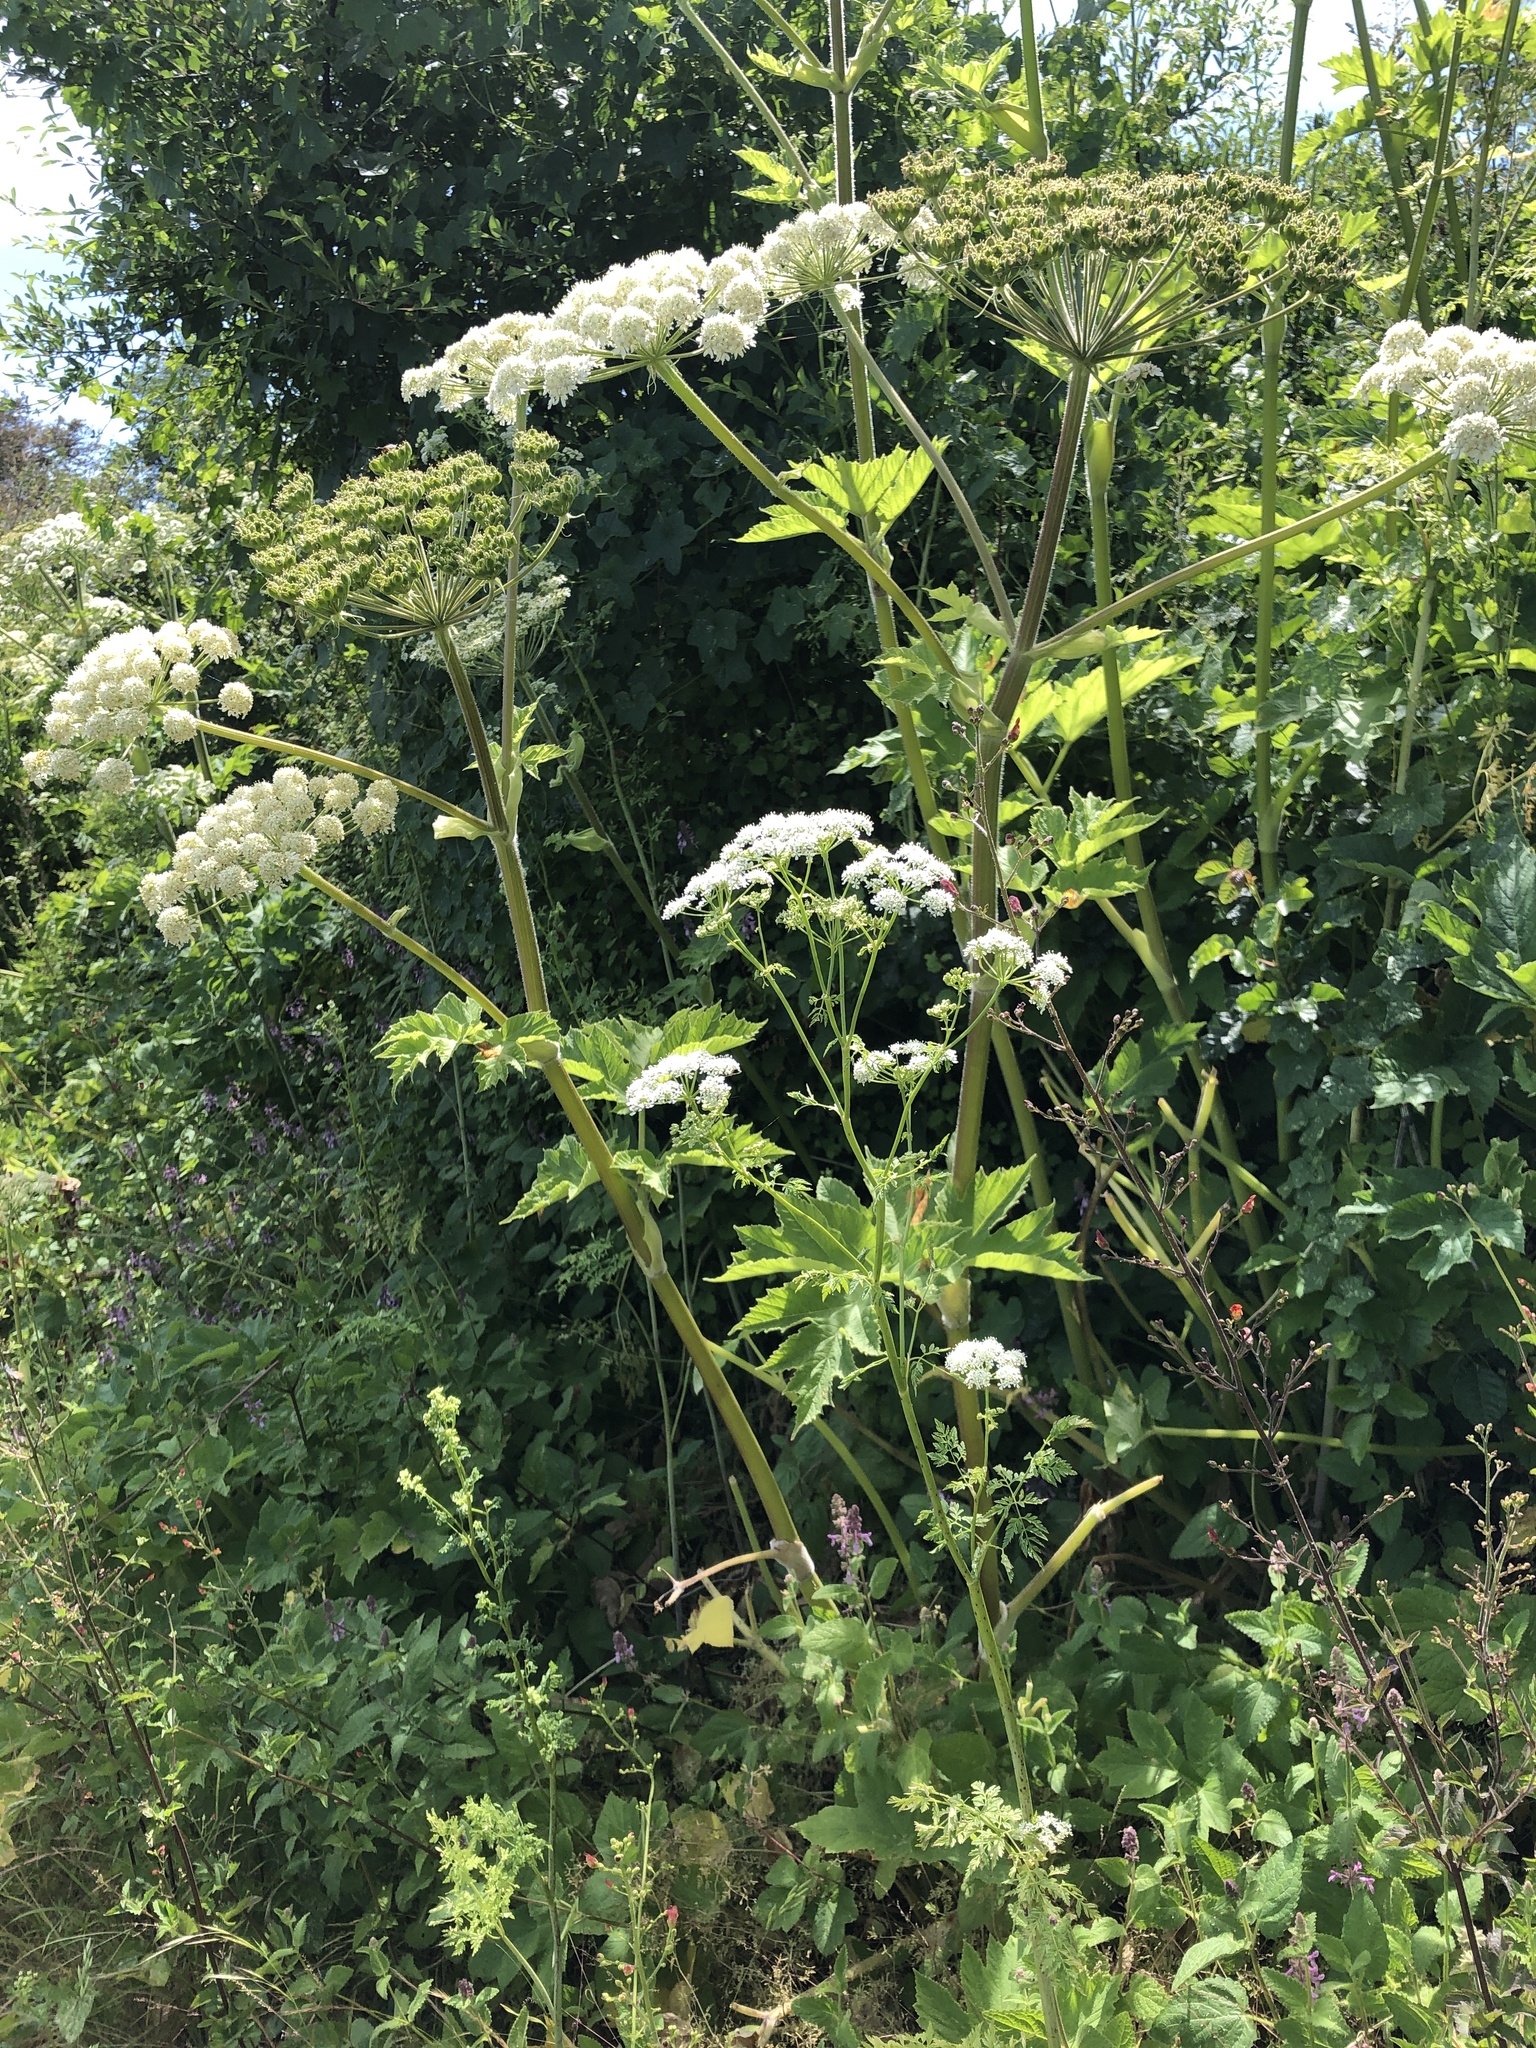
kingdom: Plantae
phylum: Tracheophyta
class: Magnoliopsida
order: Apiales
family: Apiaceae
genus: Heracleum
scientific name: Heracleum maximum
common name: American cow parsnip
